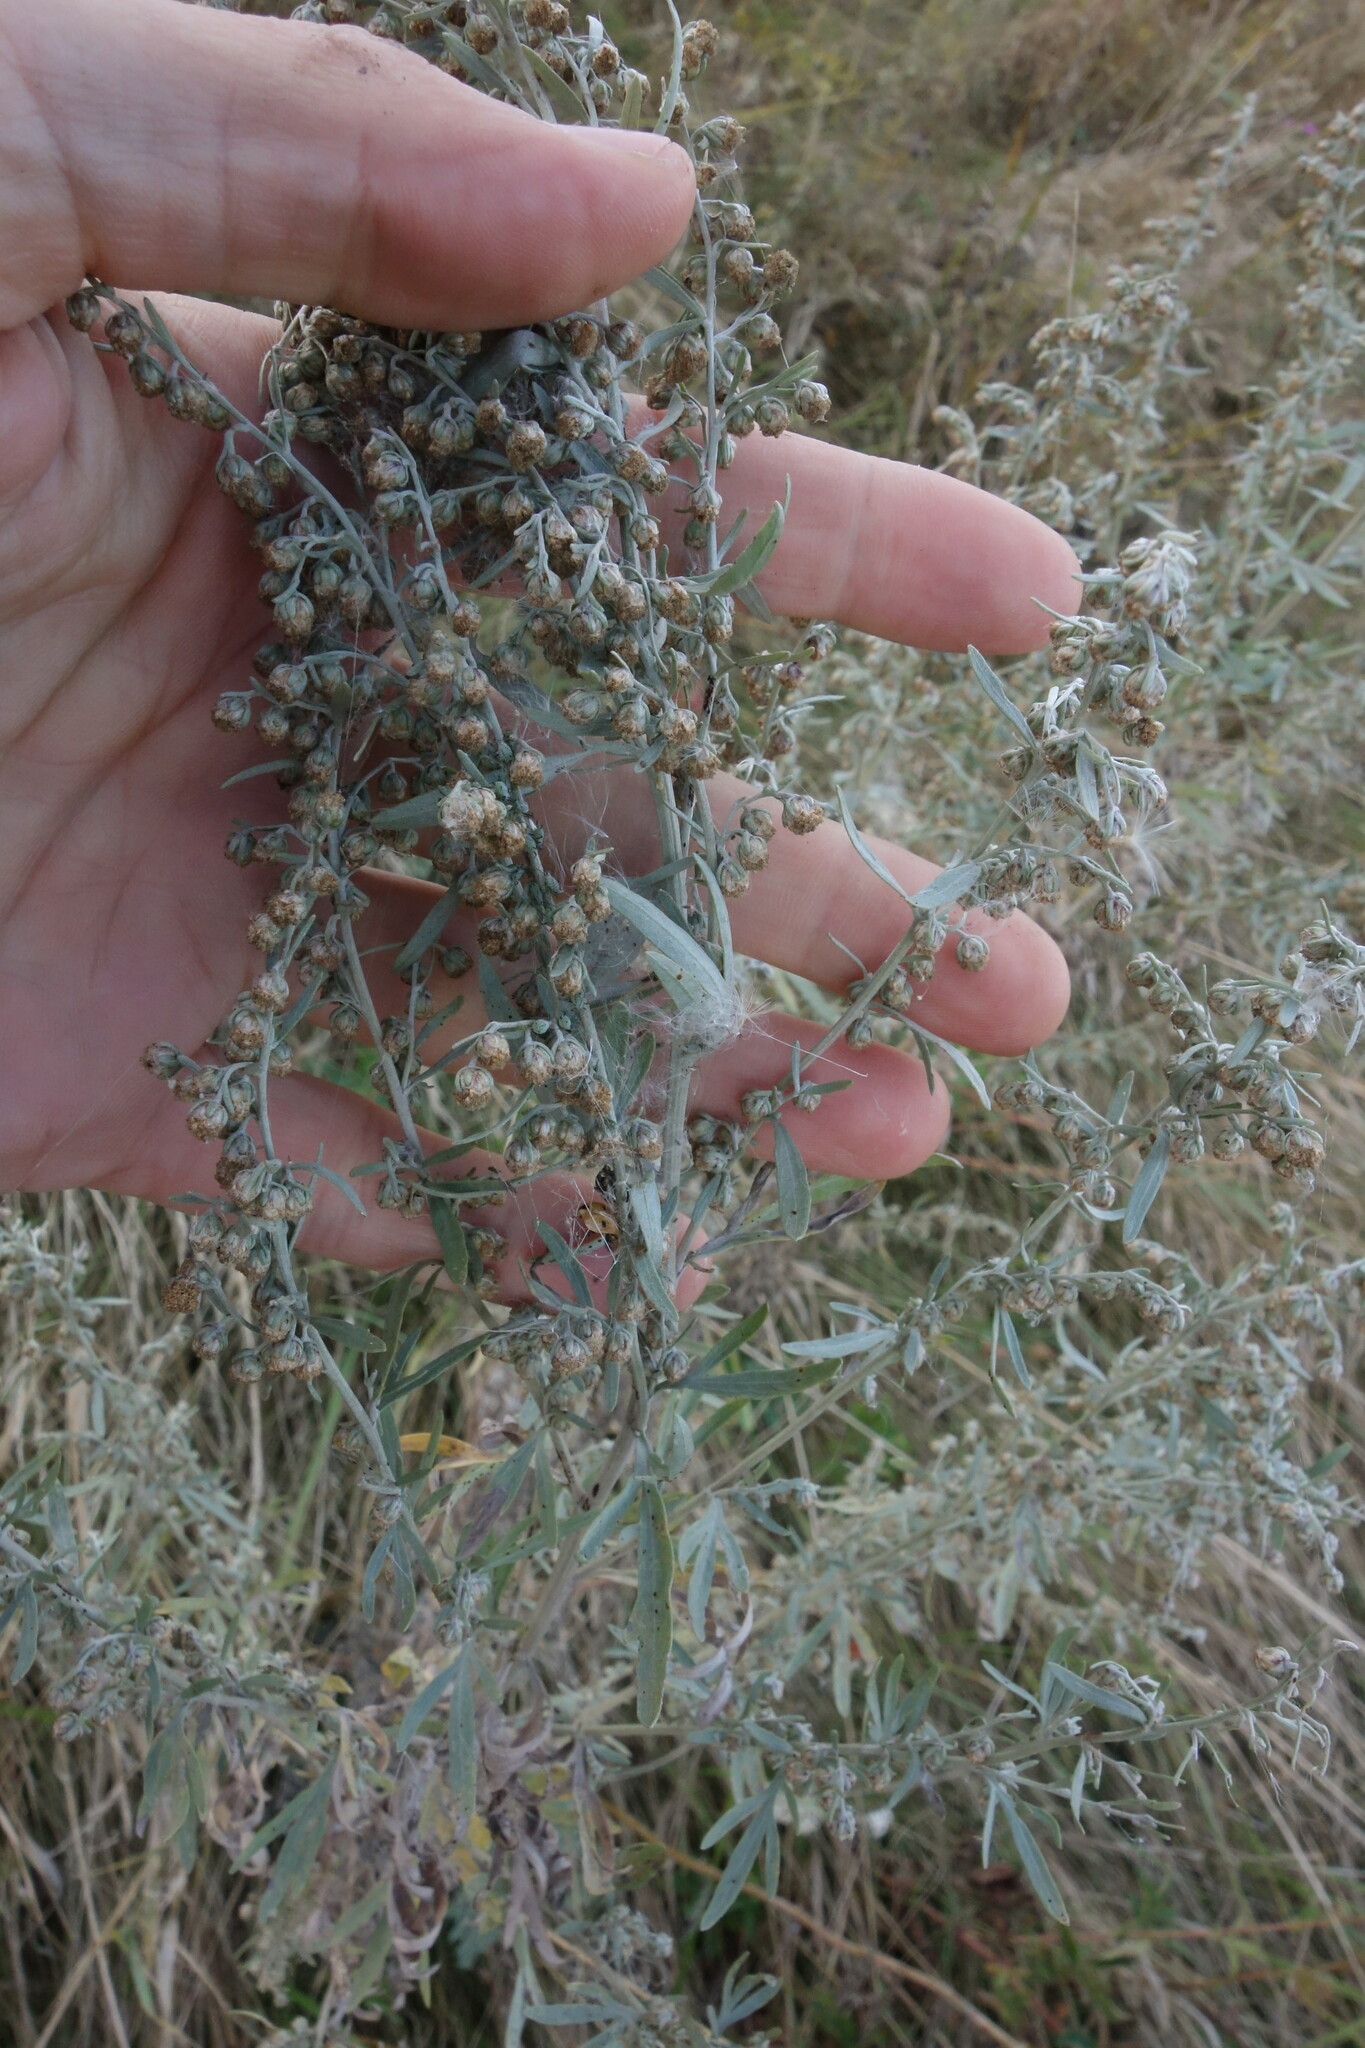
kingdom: Plantae
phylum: Tracheophyta
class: Magnoliopsida
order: Asterales
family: Asteraceae
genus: Artemisia
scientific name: Artemisia absinthium
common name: Wormwood
